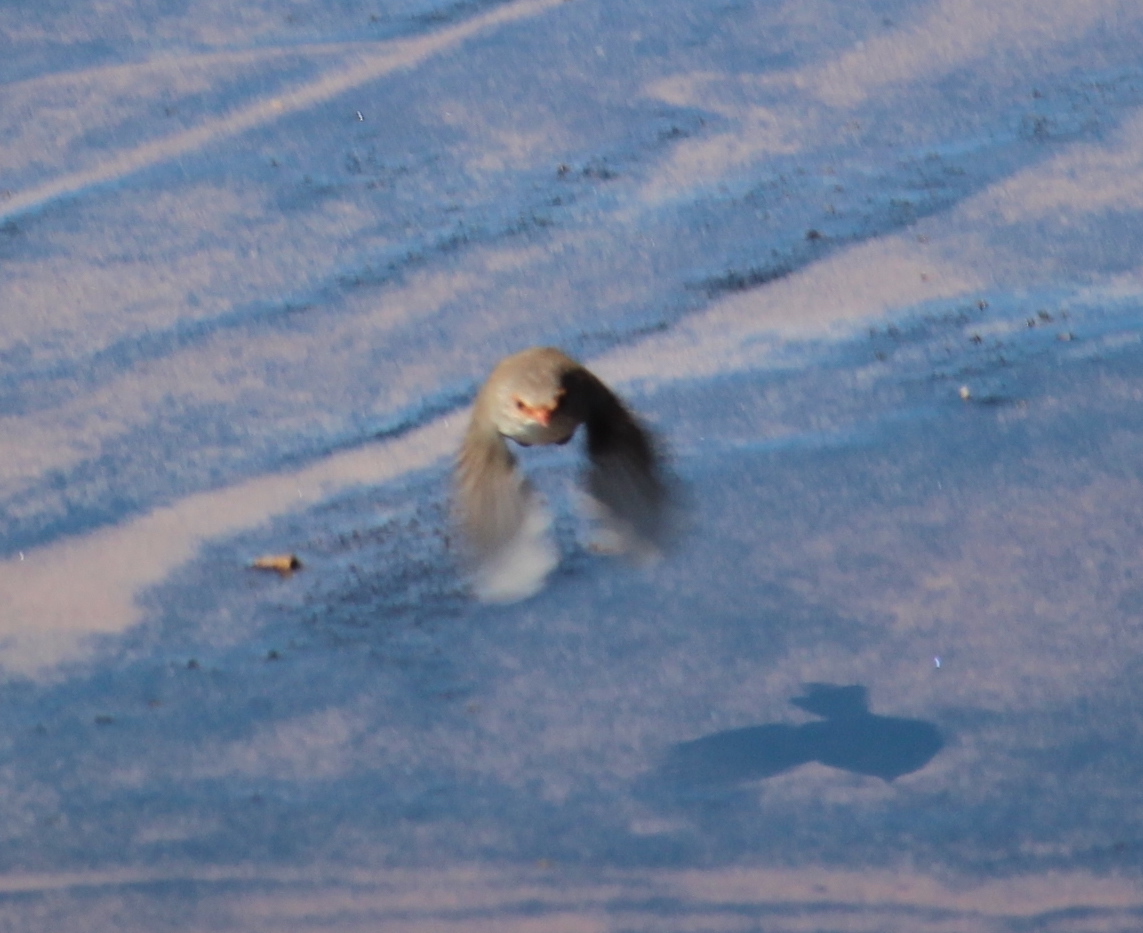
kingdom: Animalia
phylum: Chordata
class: Aves
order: Passeriformes
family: Maluridae
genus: Malurus
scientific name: Malurus cyaneus
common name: Superb fairywren
